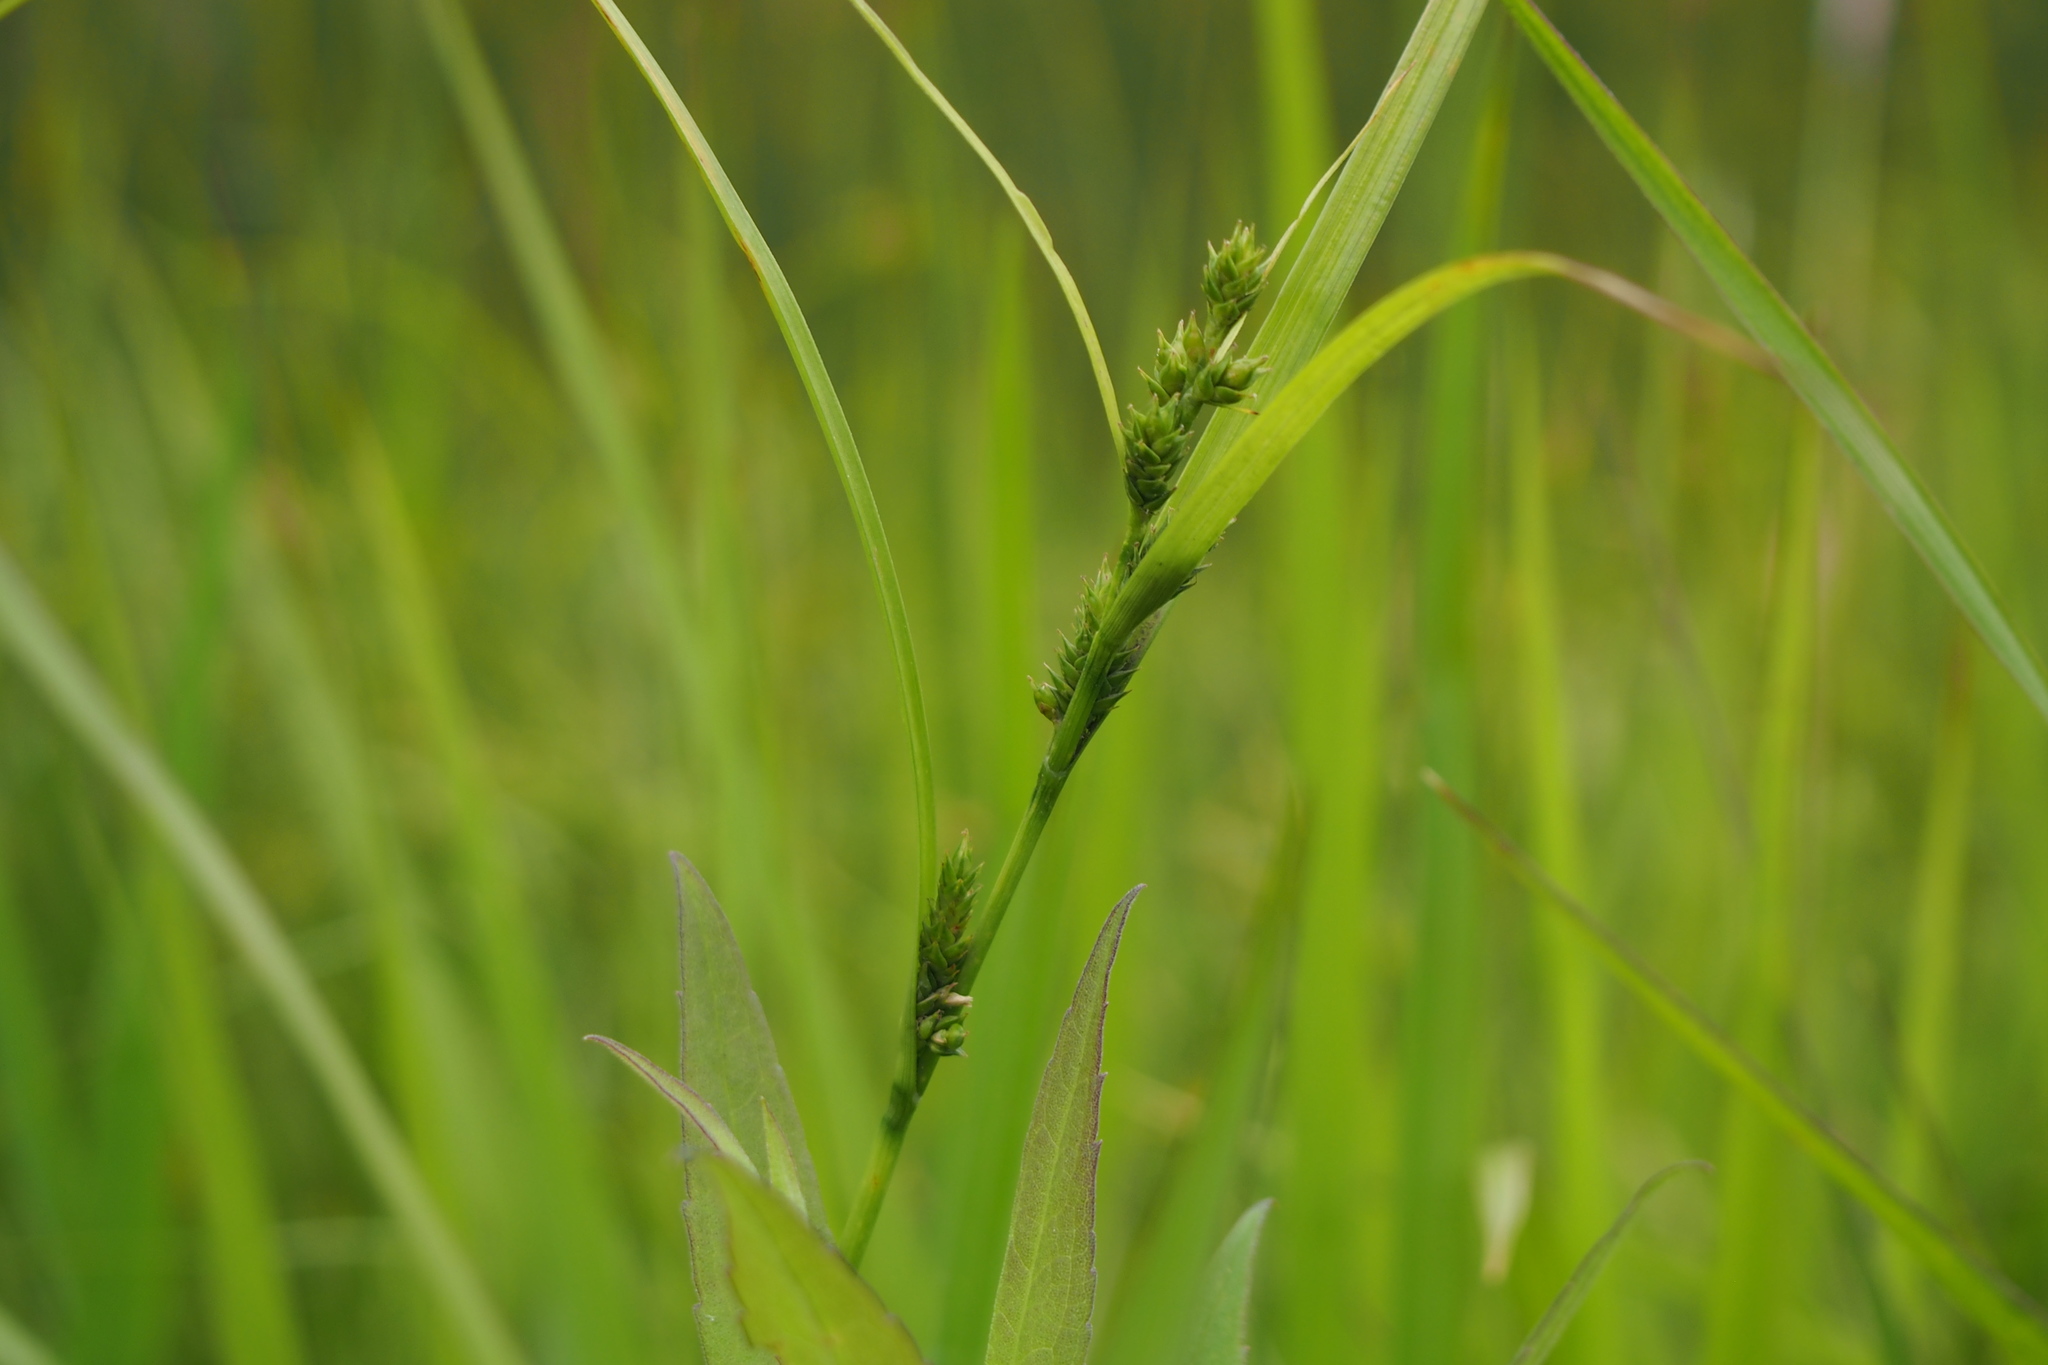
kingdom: Plantae
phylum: Tracheophyta
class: Liliopsida
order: Poales
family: Cyperaceae
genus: Carex
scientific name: Carex gibba
